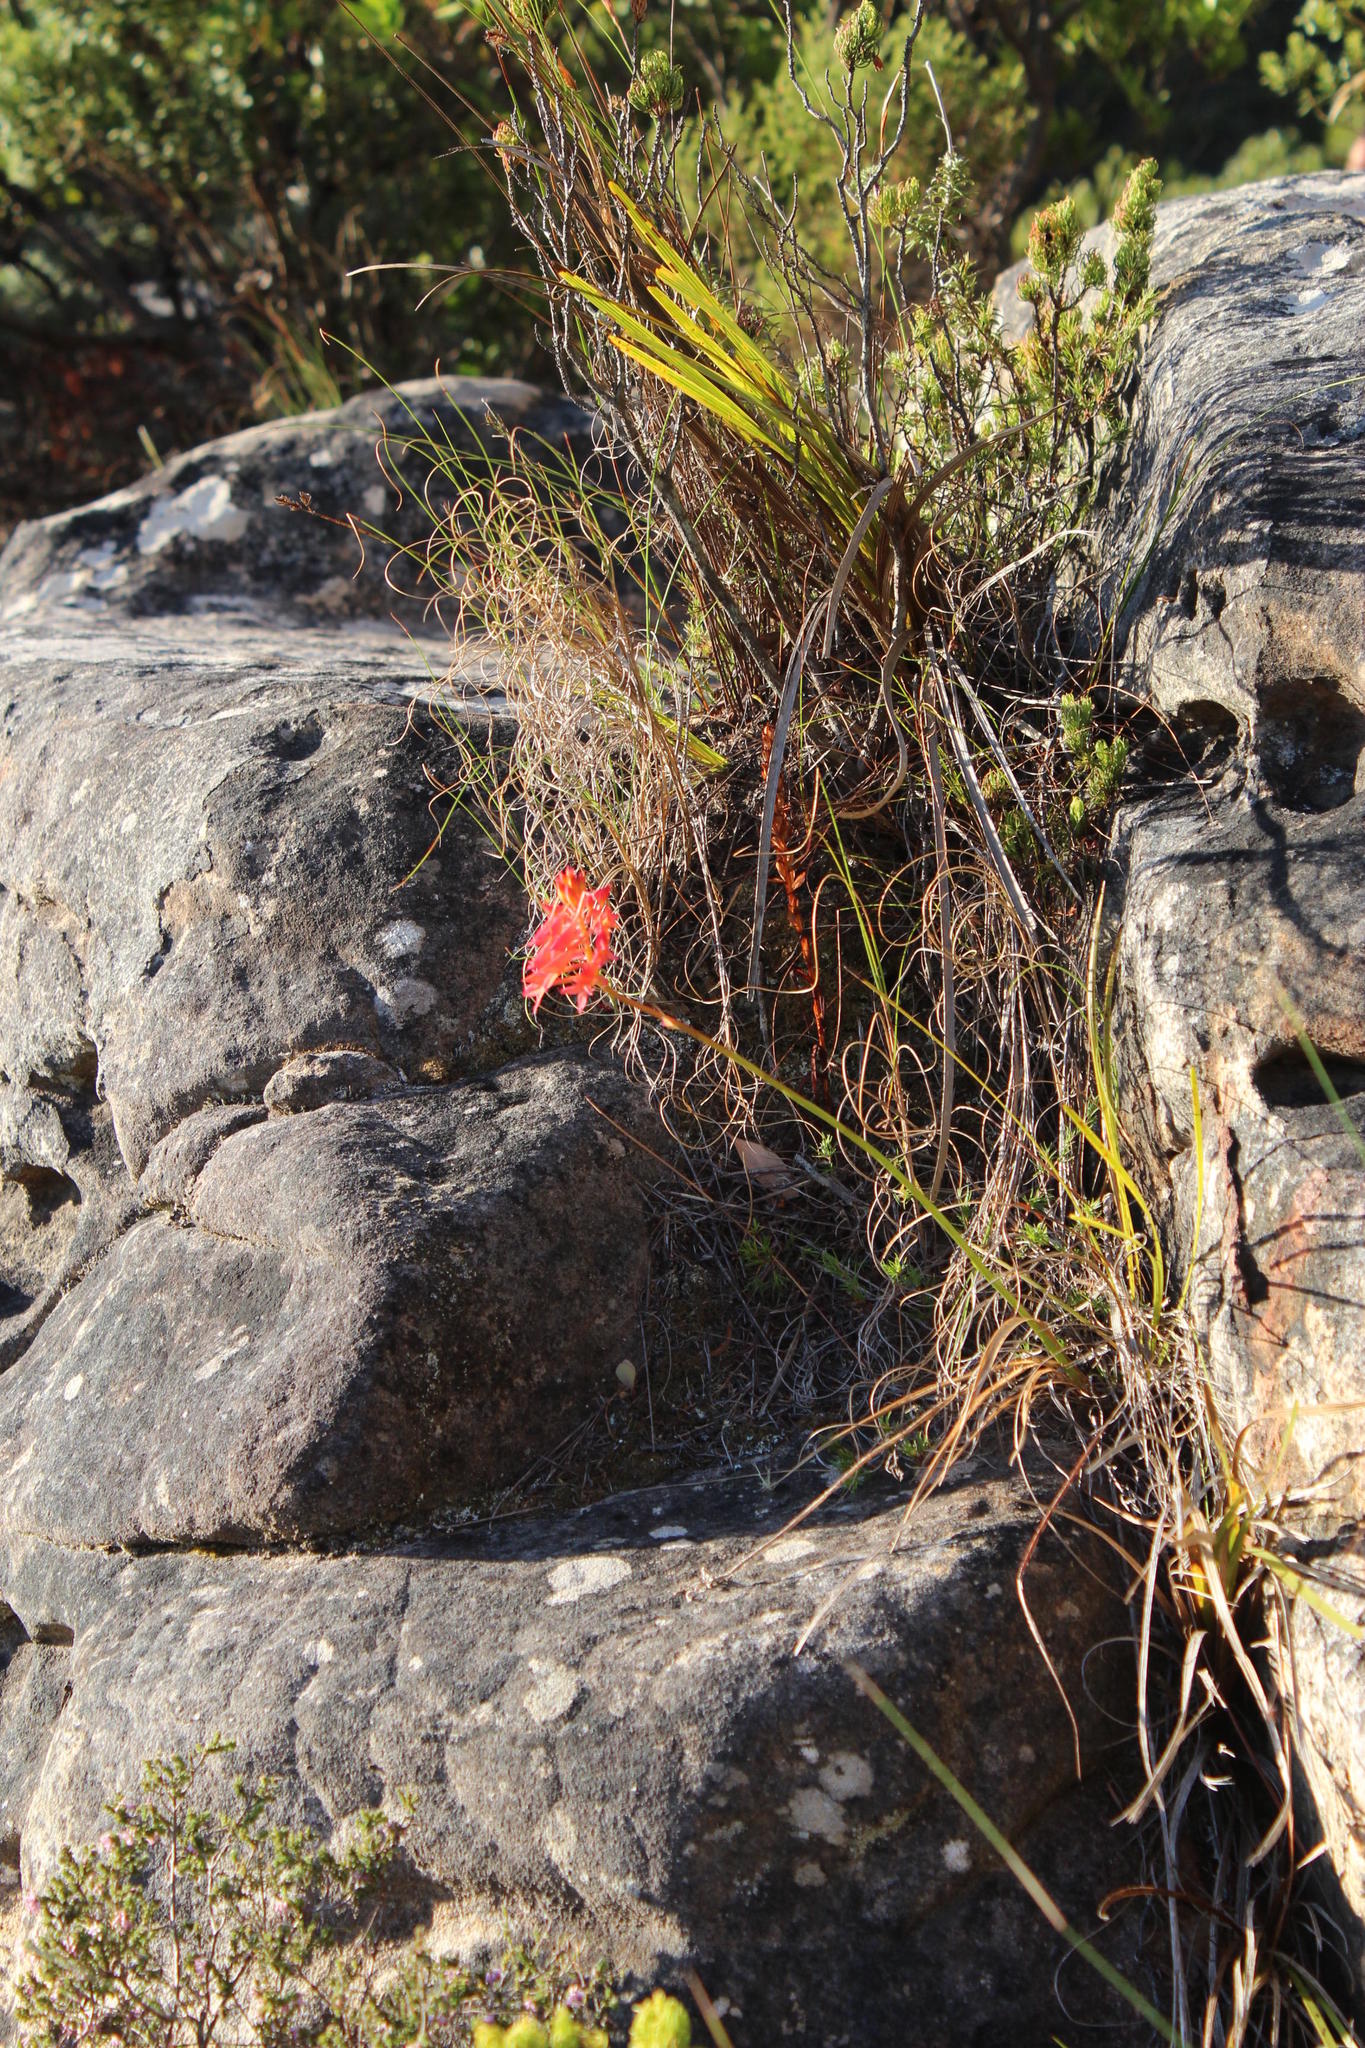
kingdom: Plantae
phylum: Tracheophyta
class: Liliopsida
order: Asparagales
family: Orchidaceae
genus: Disa
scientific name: Disa ferruginea
